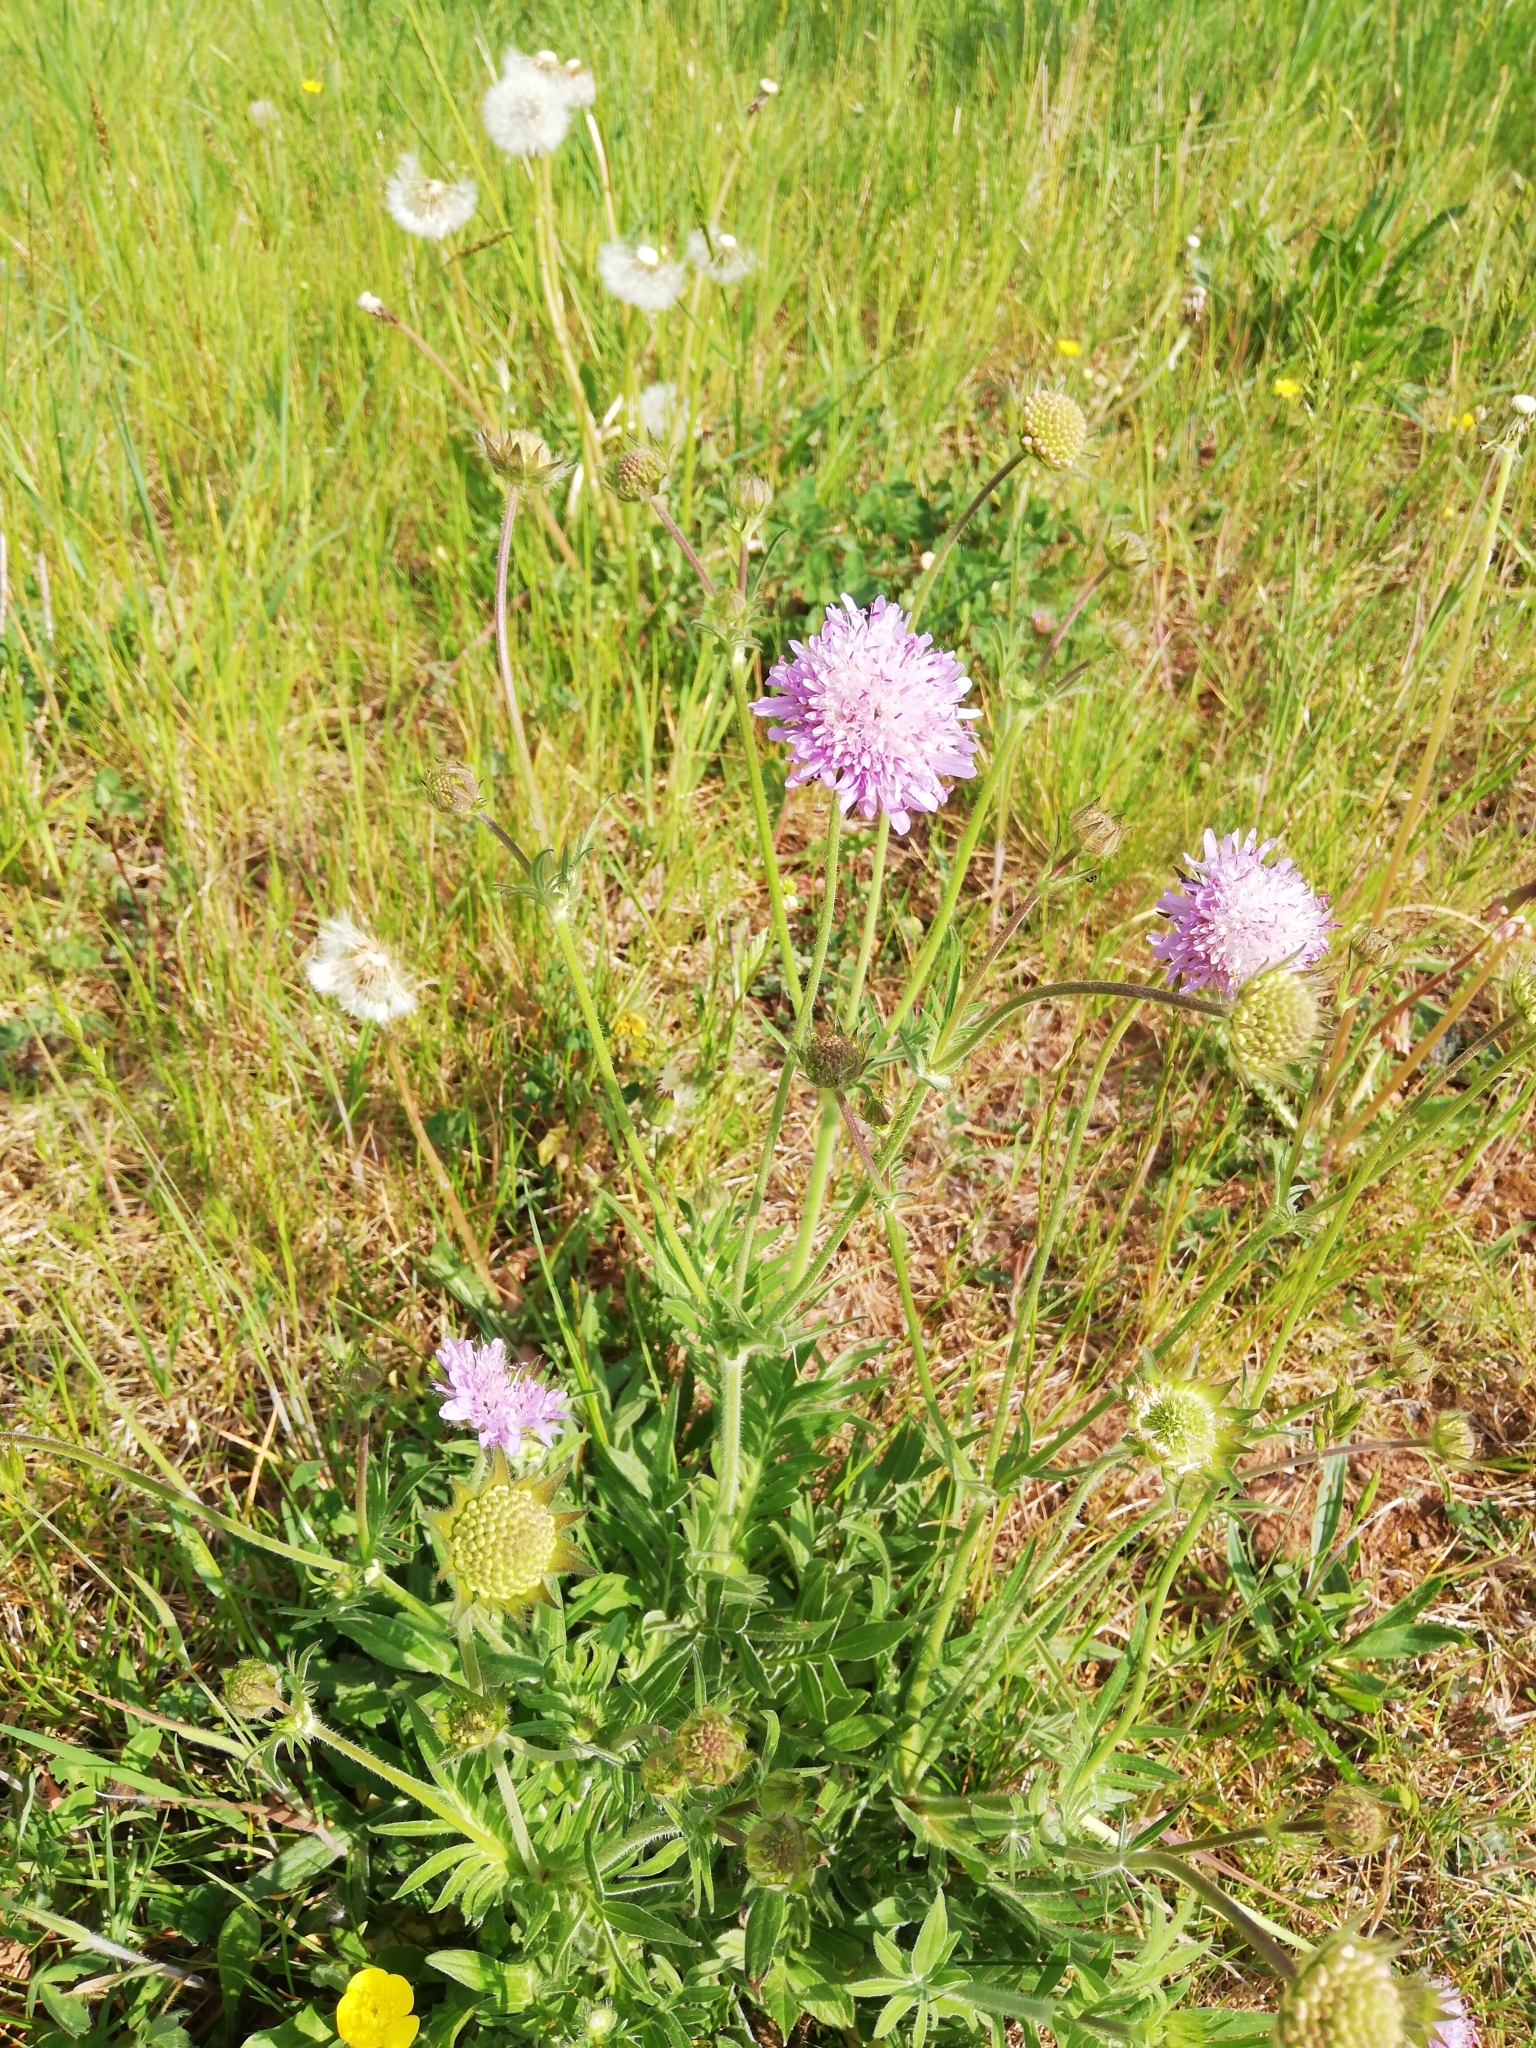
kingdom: Plantae
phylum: Tracheophyta
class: Magnoliopsida
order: Dipsacales
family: Caprifoliaceae
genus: Knautia
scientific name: Knautia arvensis
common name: Field scabiosa
